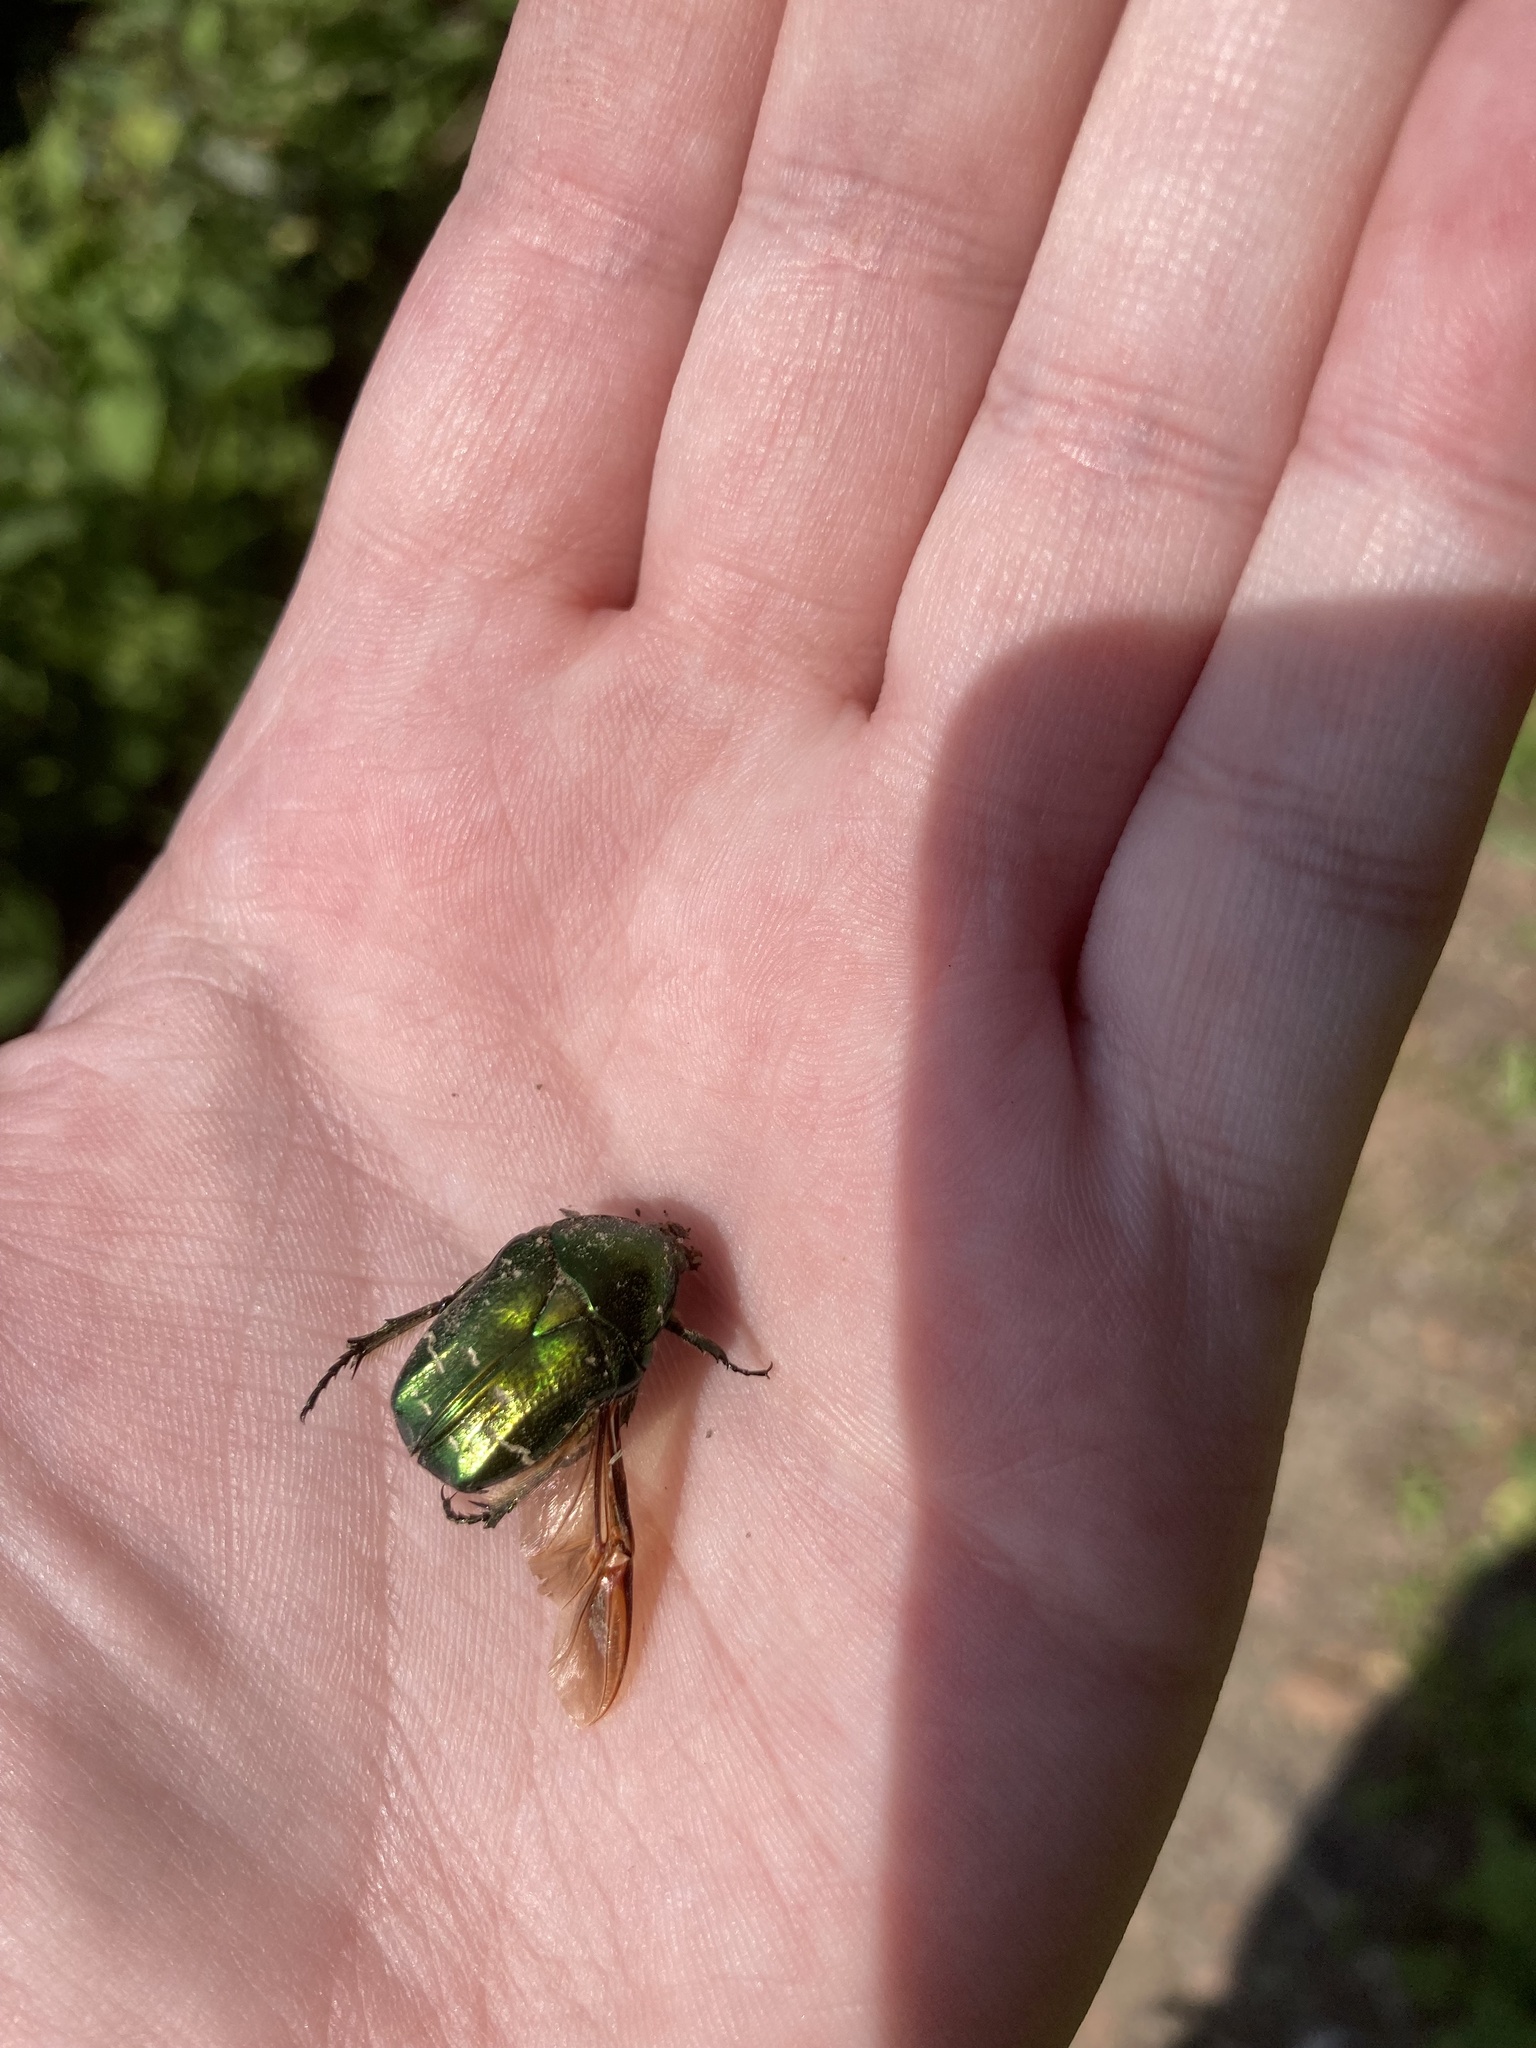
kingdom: Animalia
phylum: Arthropoda
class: Insecta
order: Coleoptera
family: Scarabaeidae
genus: Cetonia
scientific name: Cetonia aurata
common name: Rose chafer
